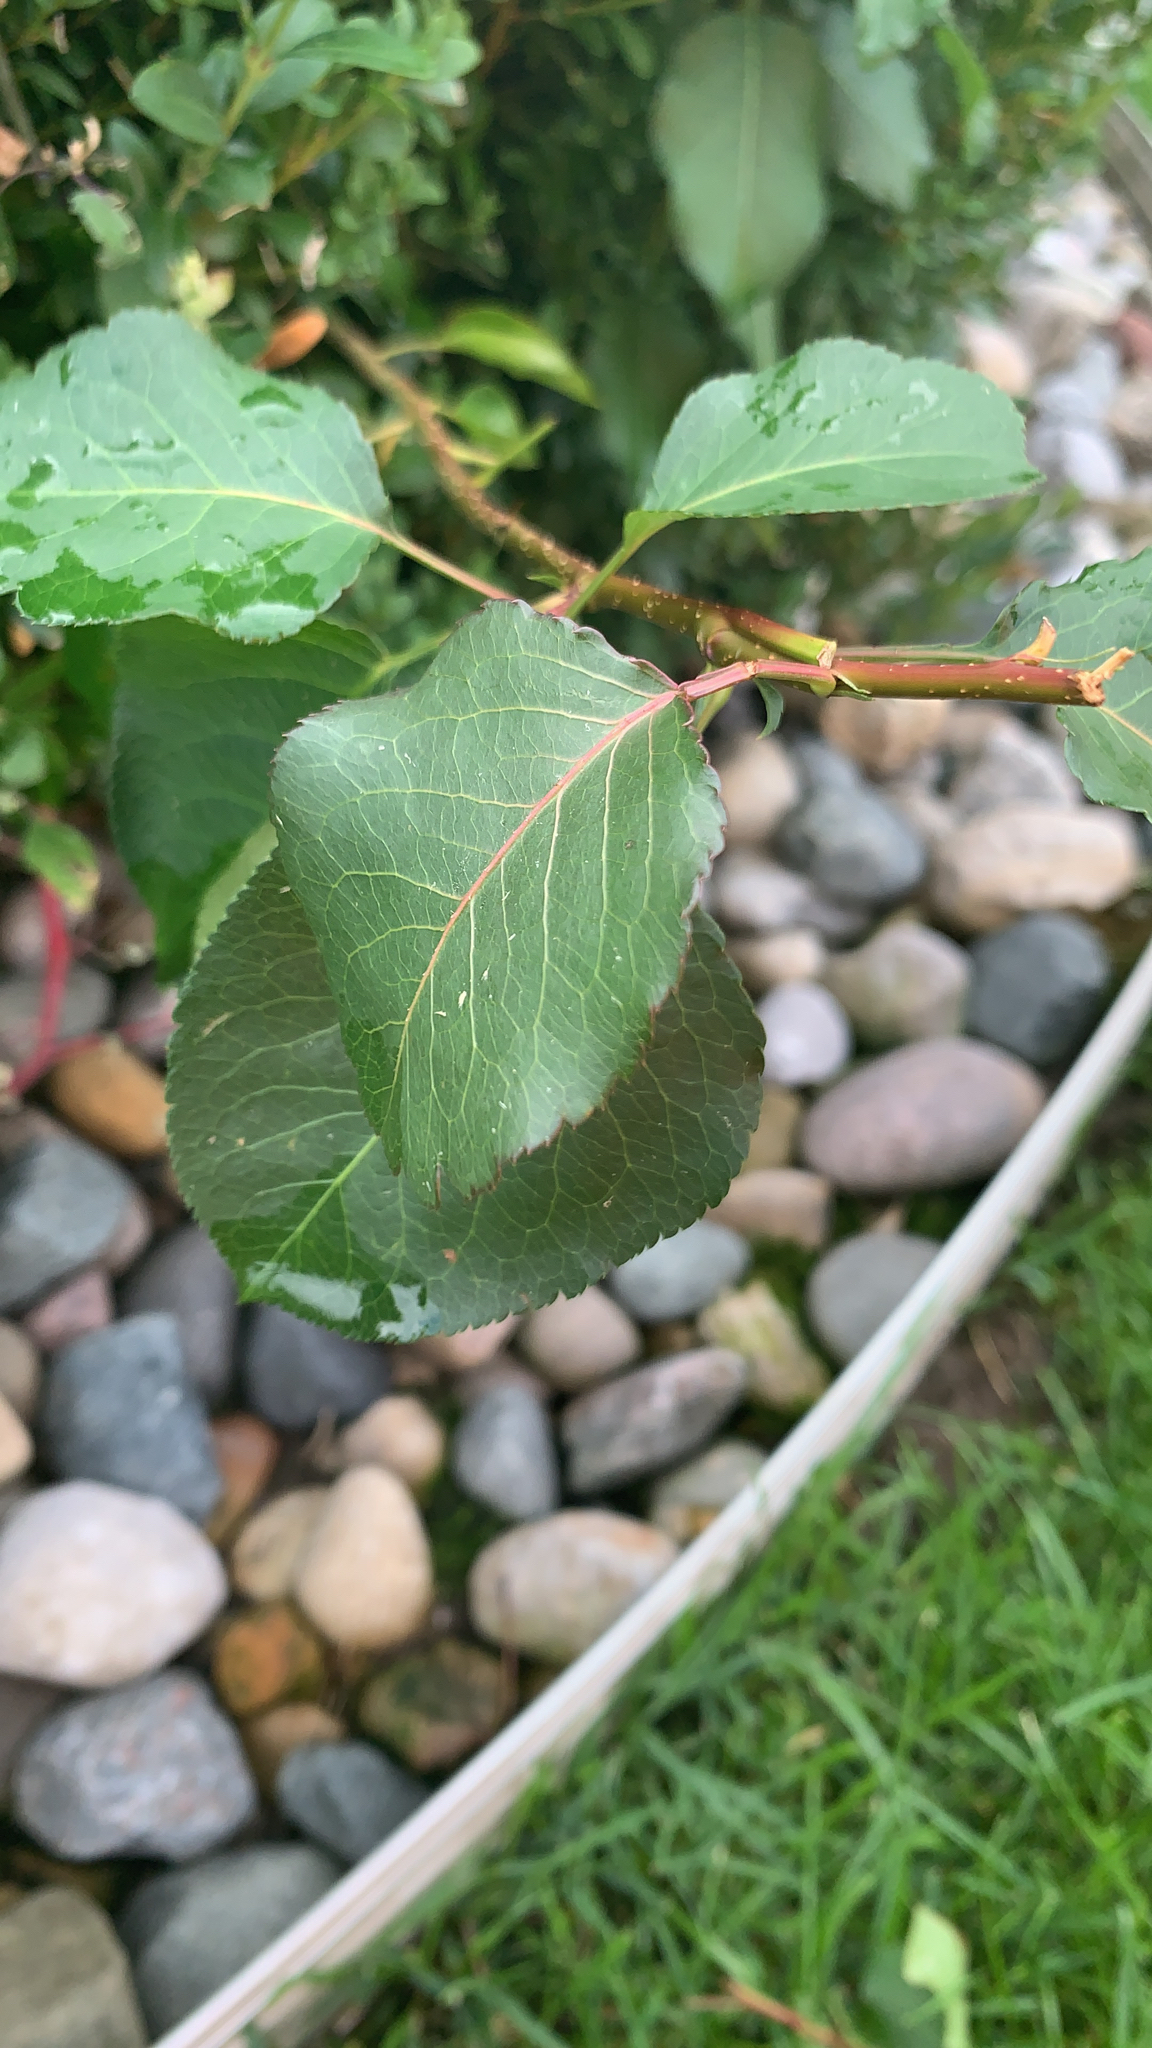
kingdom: Plantae
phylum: Tracheophyta
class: Magnoliopsida
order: Rosales
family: Rosaceae
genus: Pyrus
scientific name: Pyrus calleryana
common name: Callery pear
